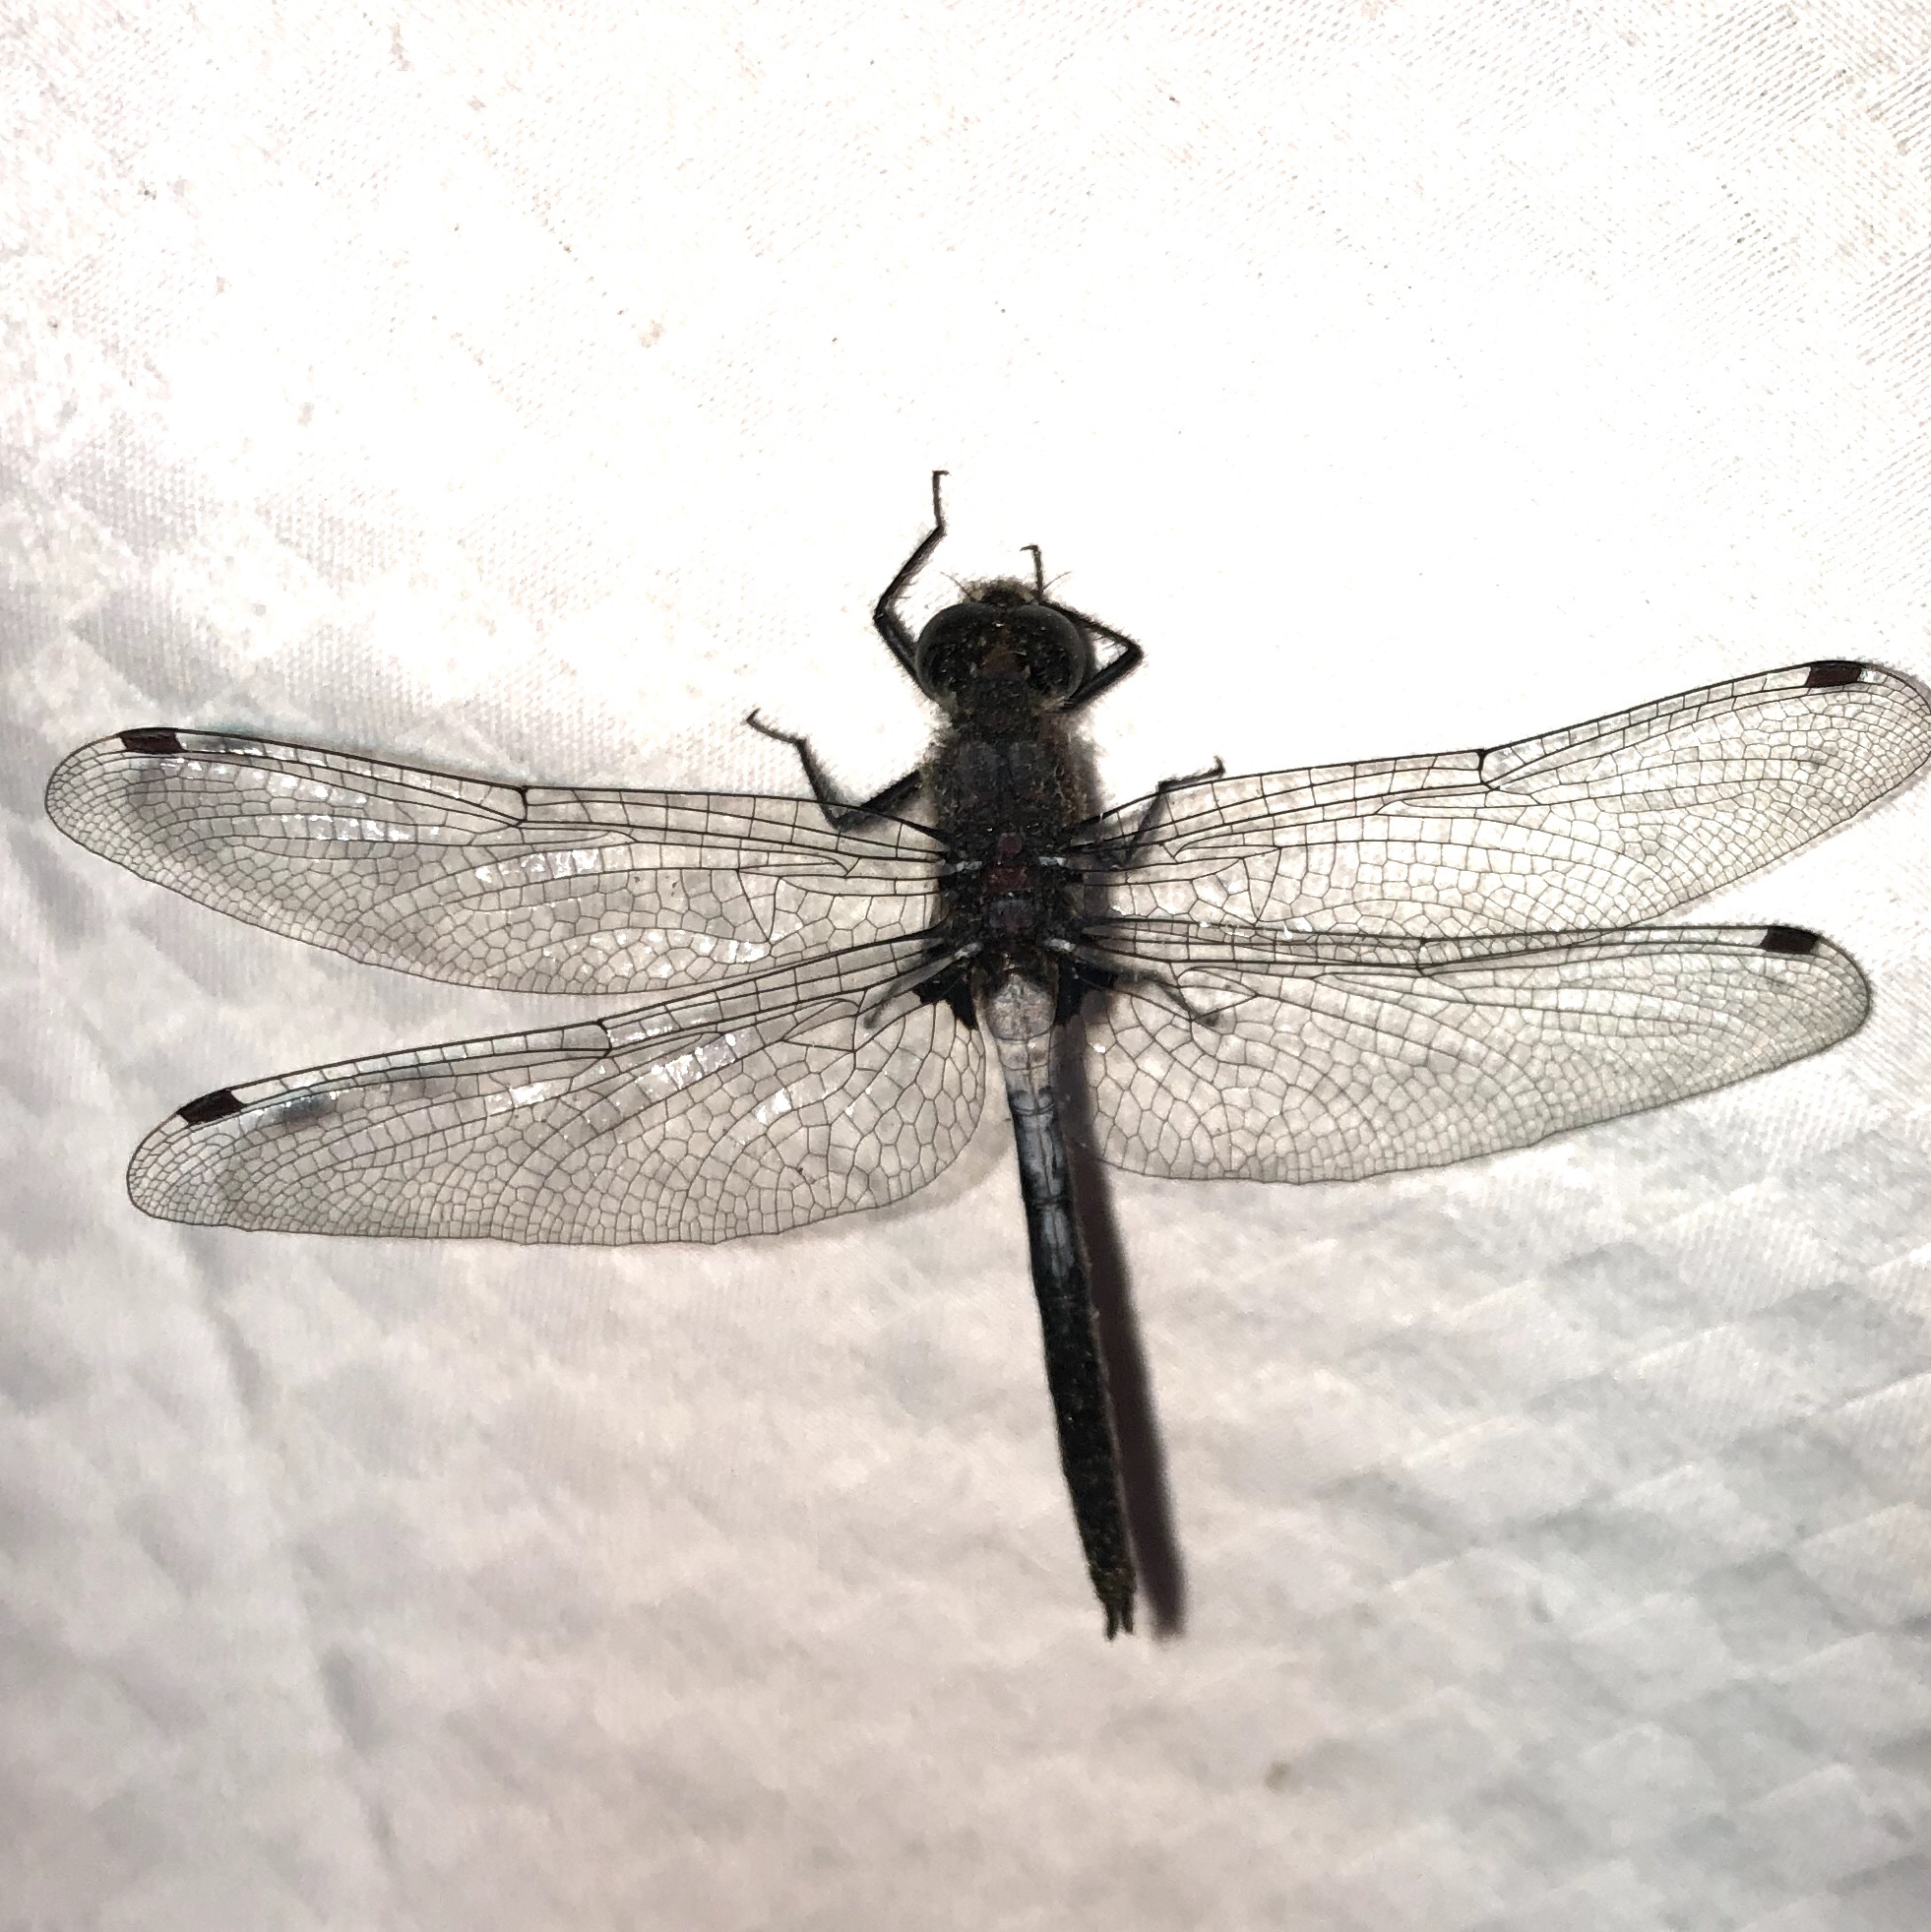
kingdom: Animalia
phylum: Arthropoda
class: Insecta
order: Odonata
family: Libellulidae
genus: Leucorrhinia
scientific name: Leucorrhinia proxima
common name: Belted whiteface
